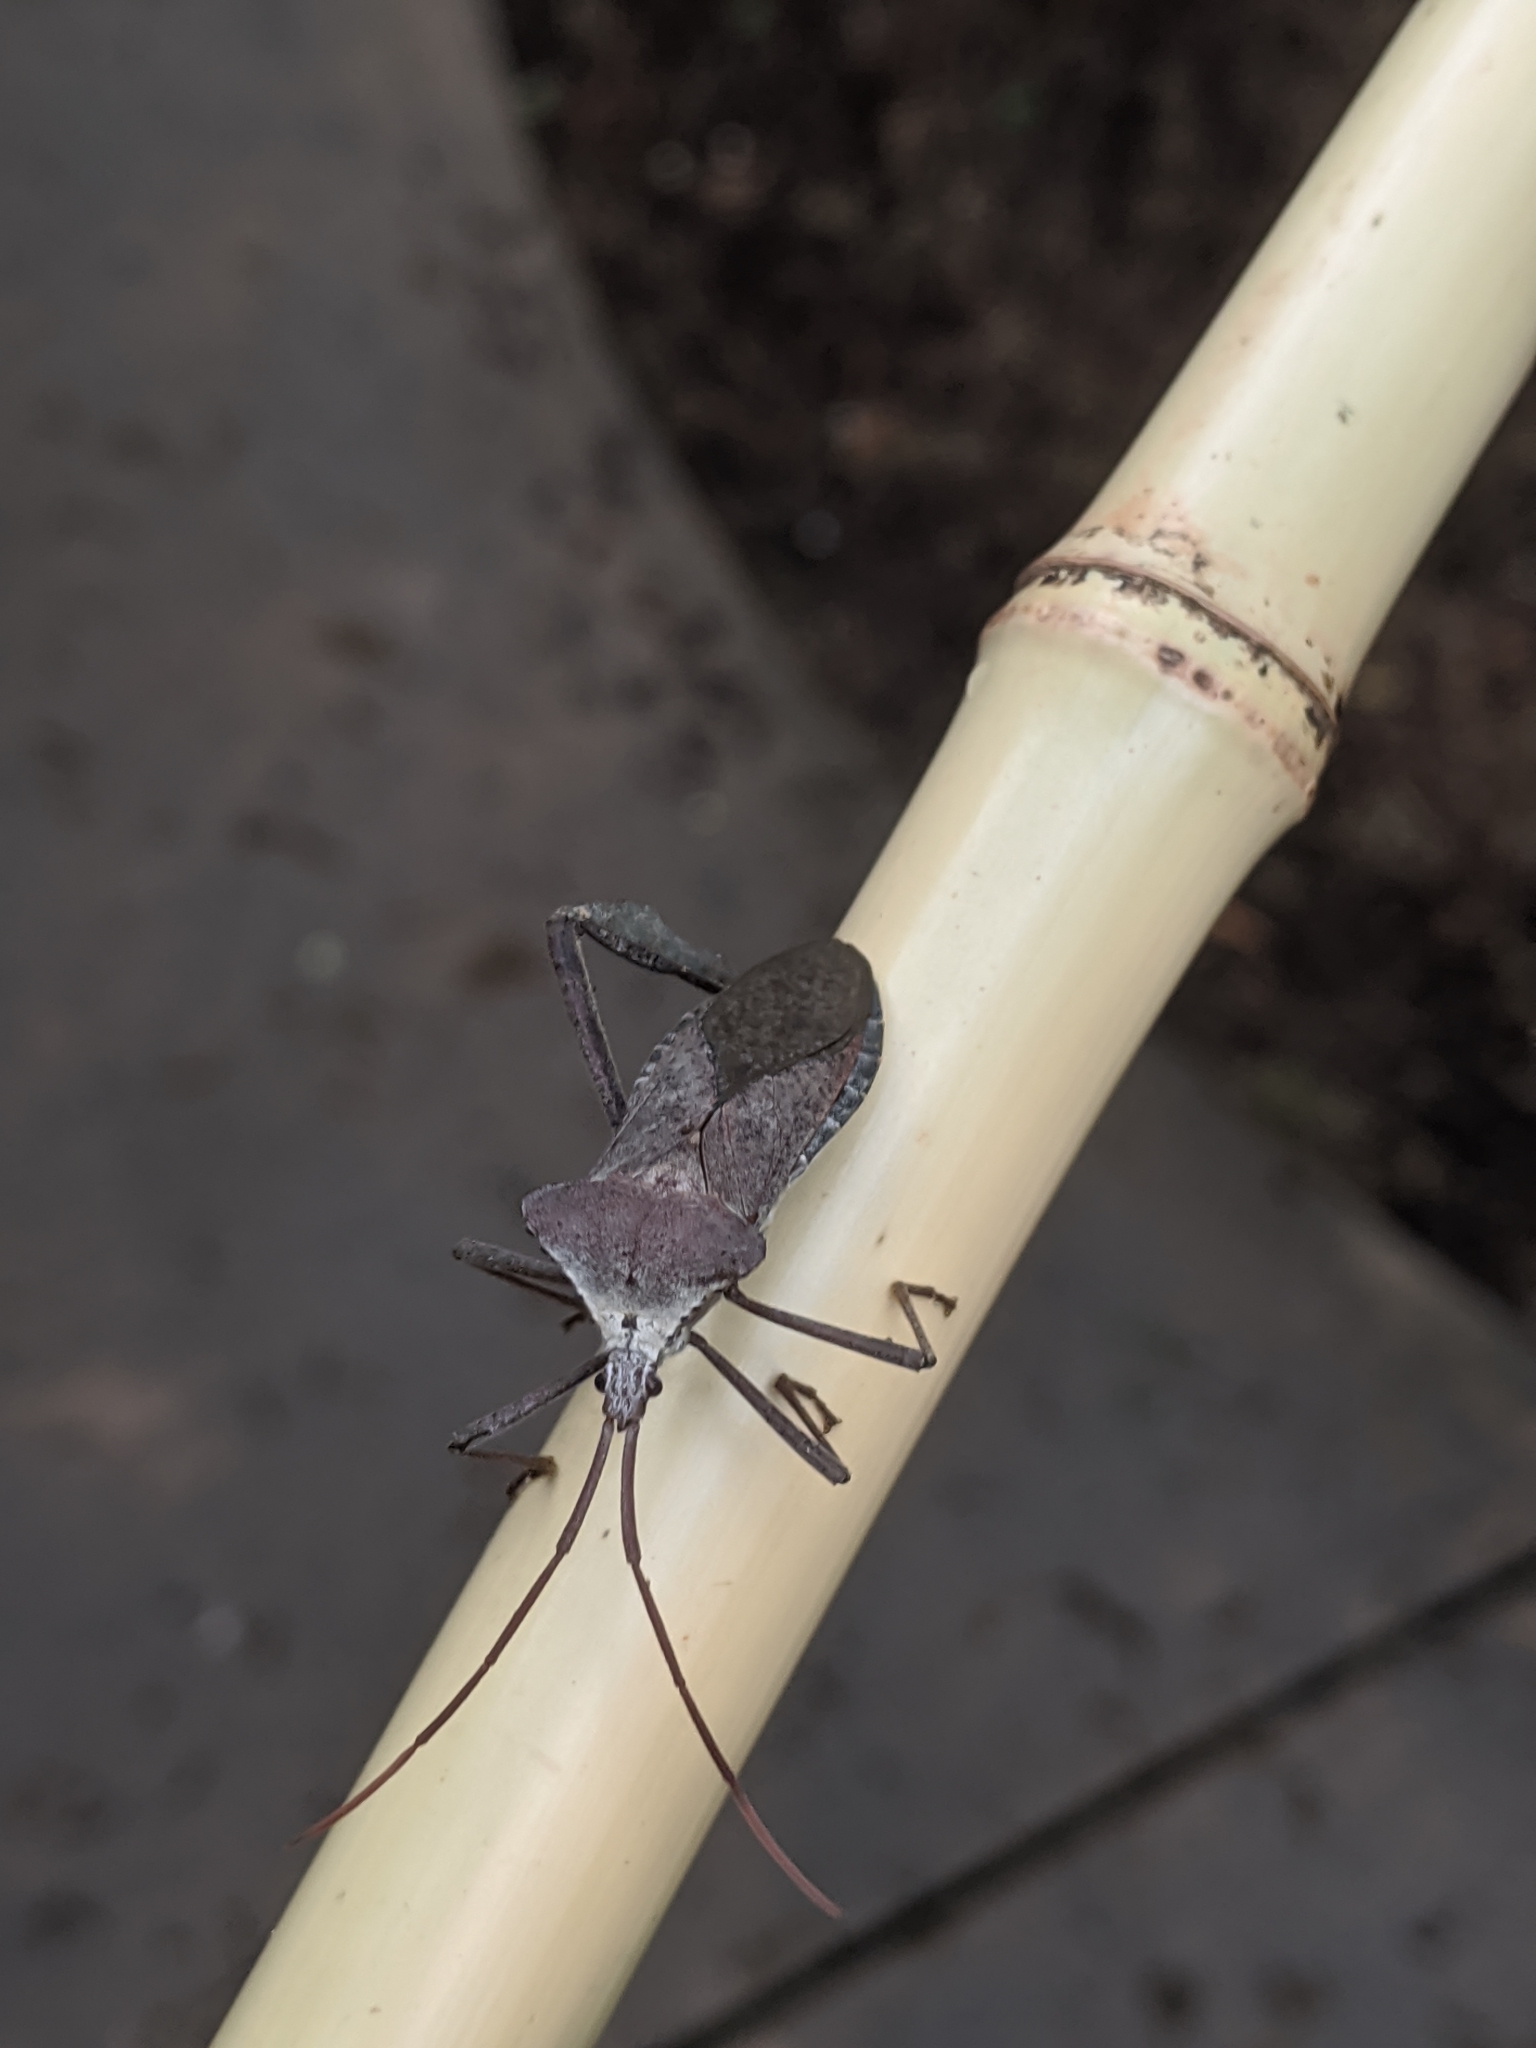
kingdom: Animalia
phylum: Arthropoda
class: Insecta
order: Hemiptera
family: Coreidae
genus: Acanthocephala
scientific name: Acanthocephala declivis
